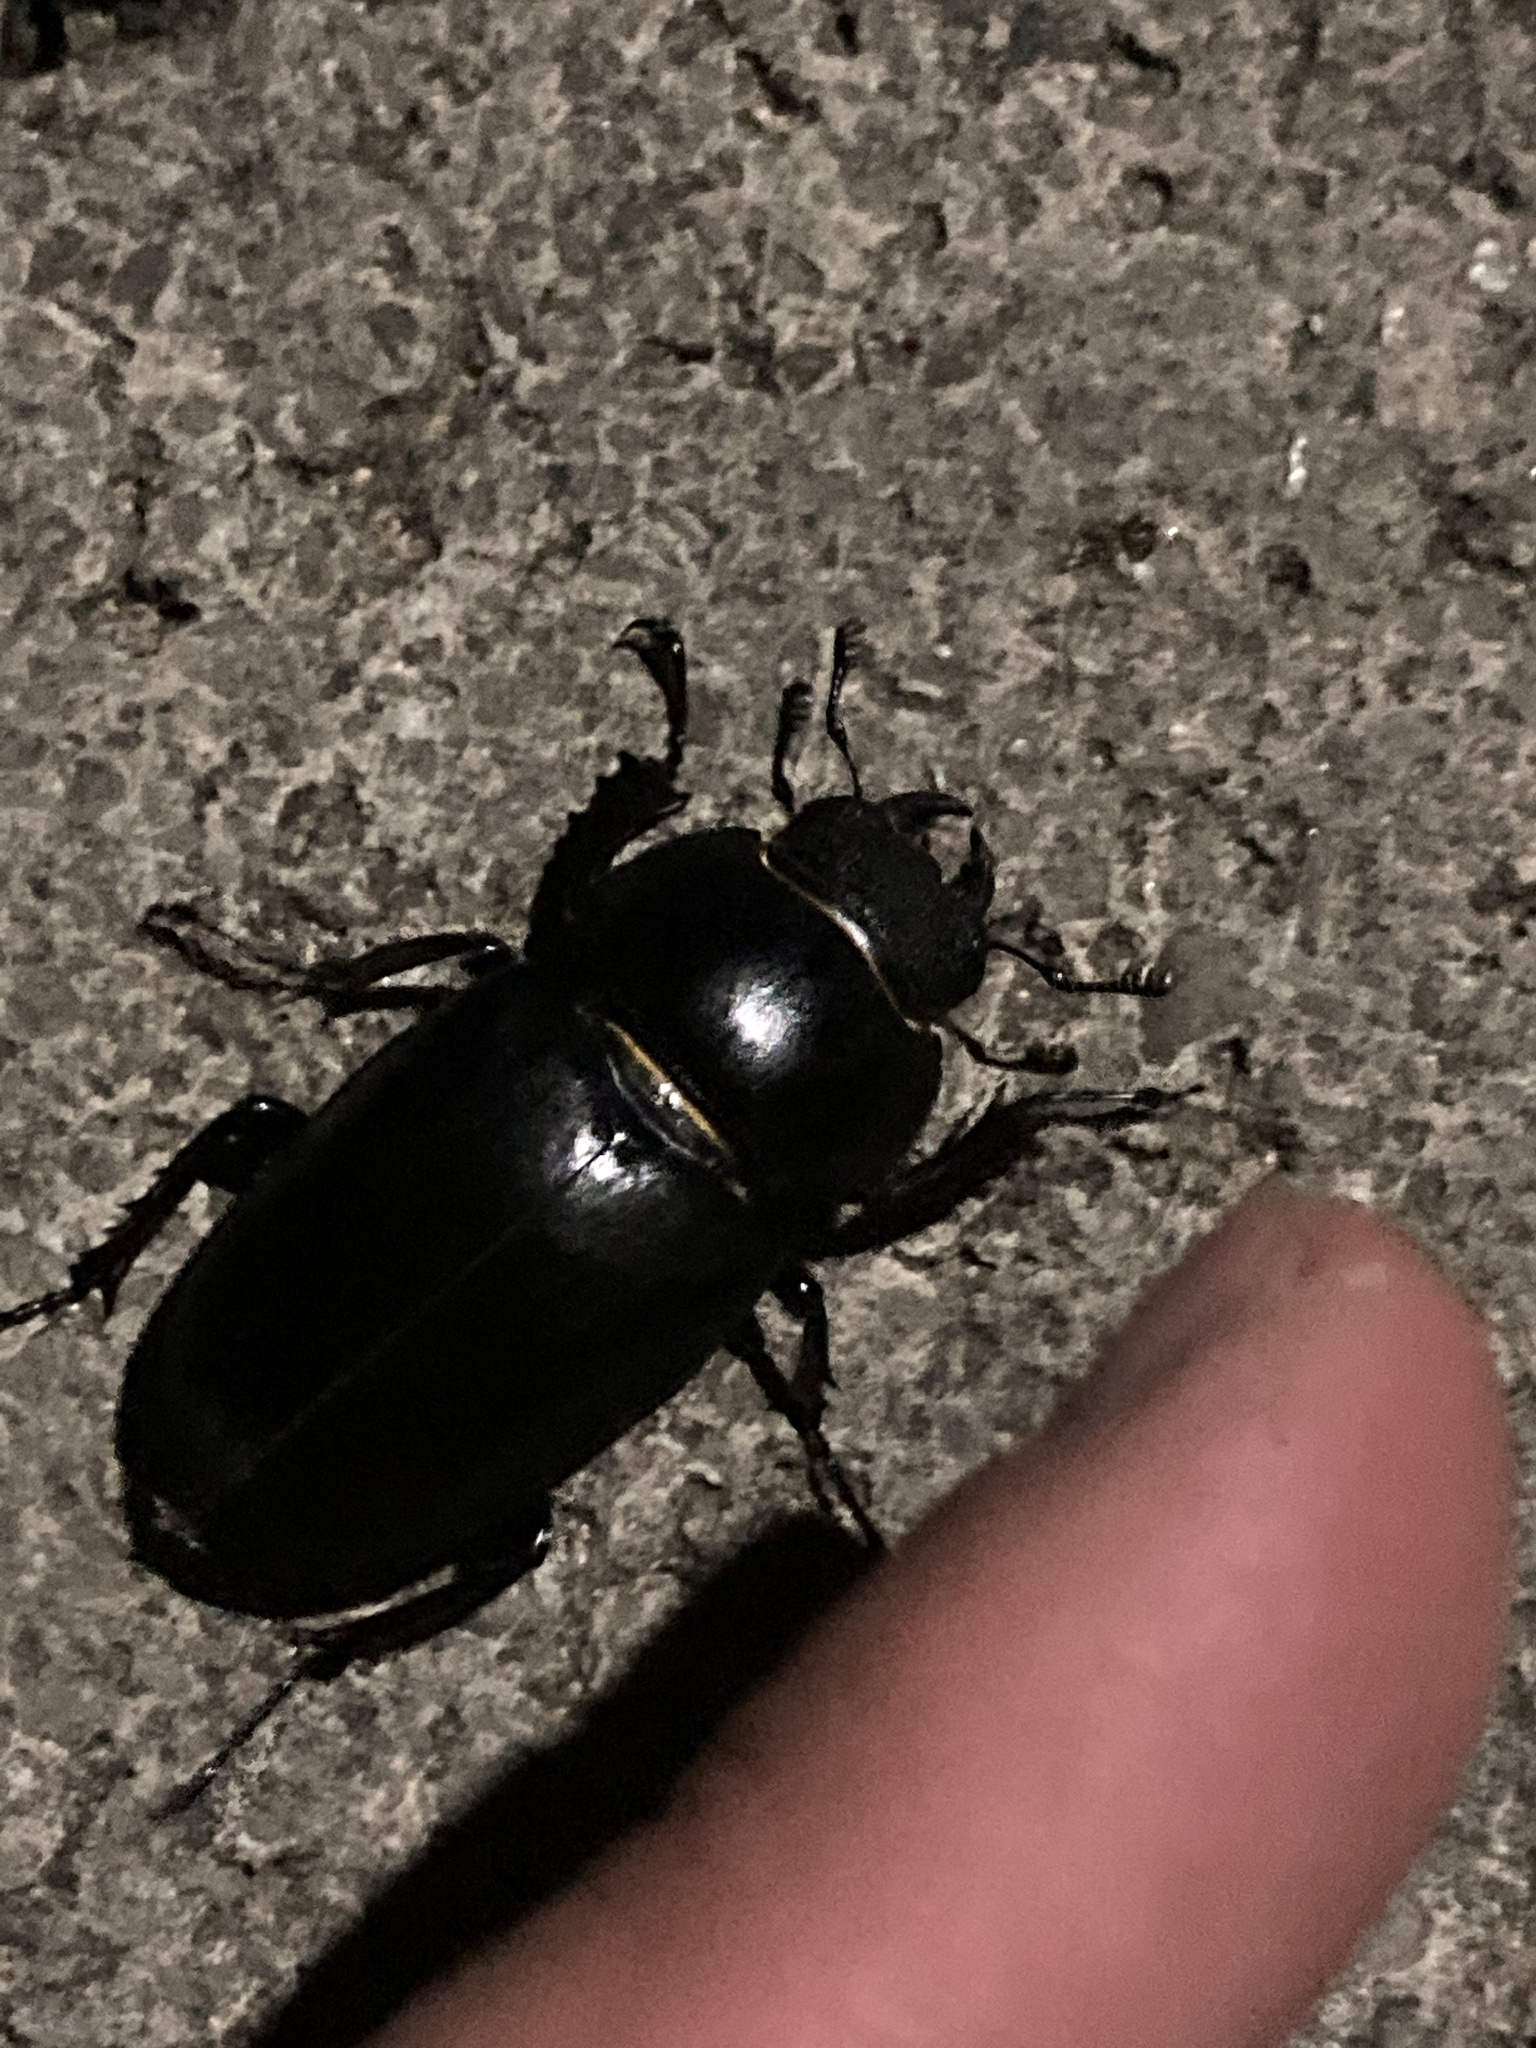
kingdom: Animalia
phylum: Arthropoda
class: Insecta
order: Coleoptera
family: Lucanidae
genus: Lucanus
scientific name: Lucanus cervus
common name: Stag beetle
